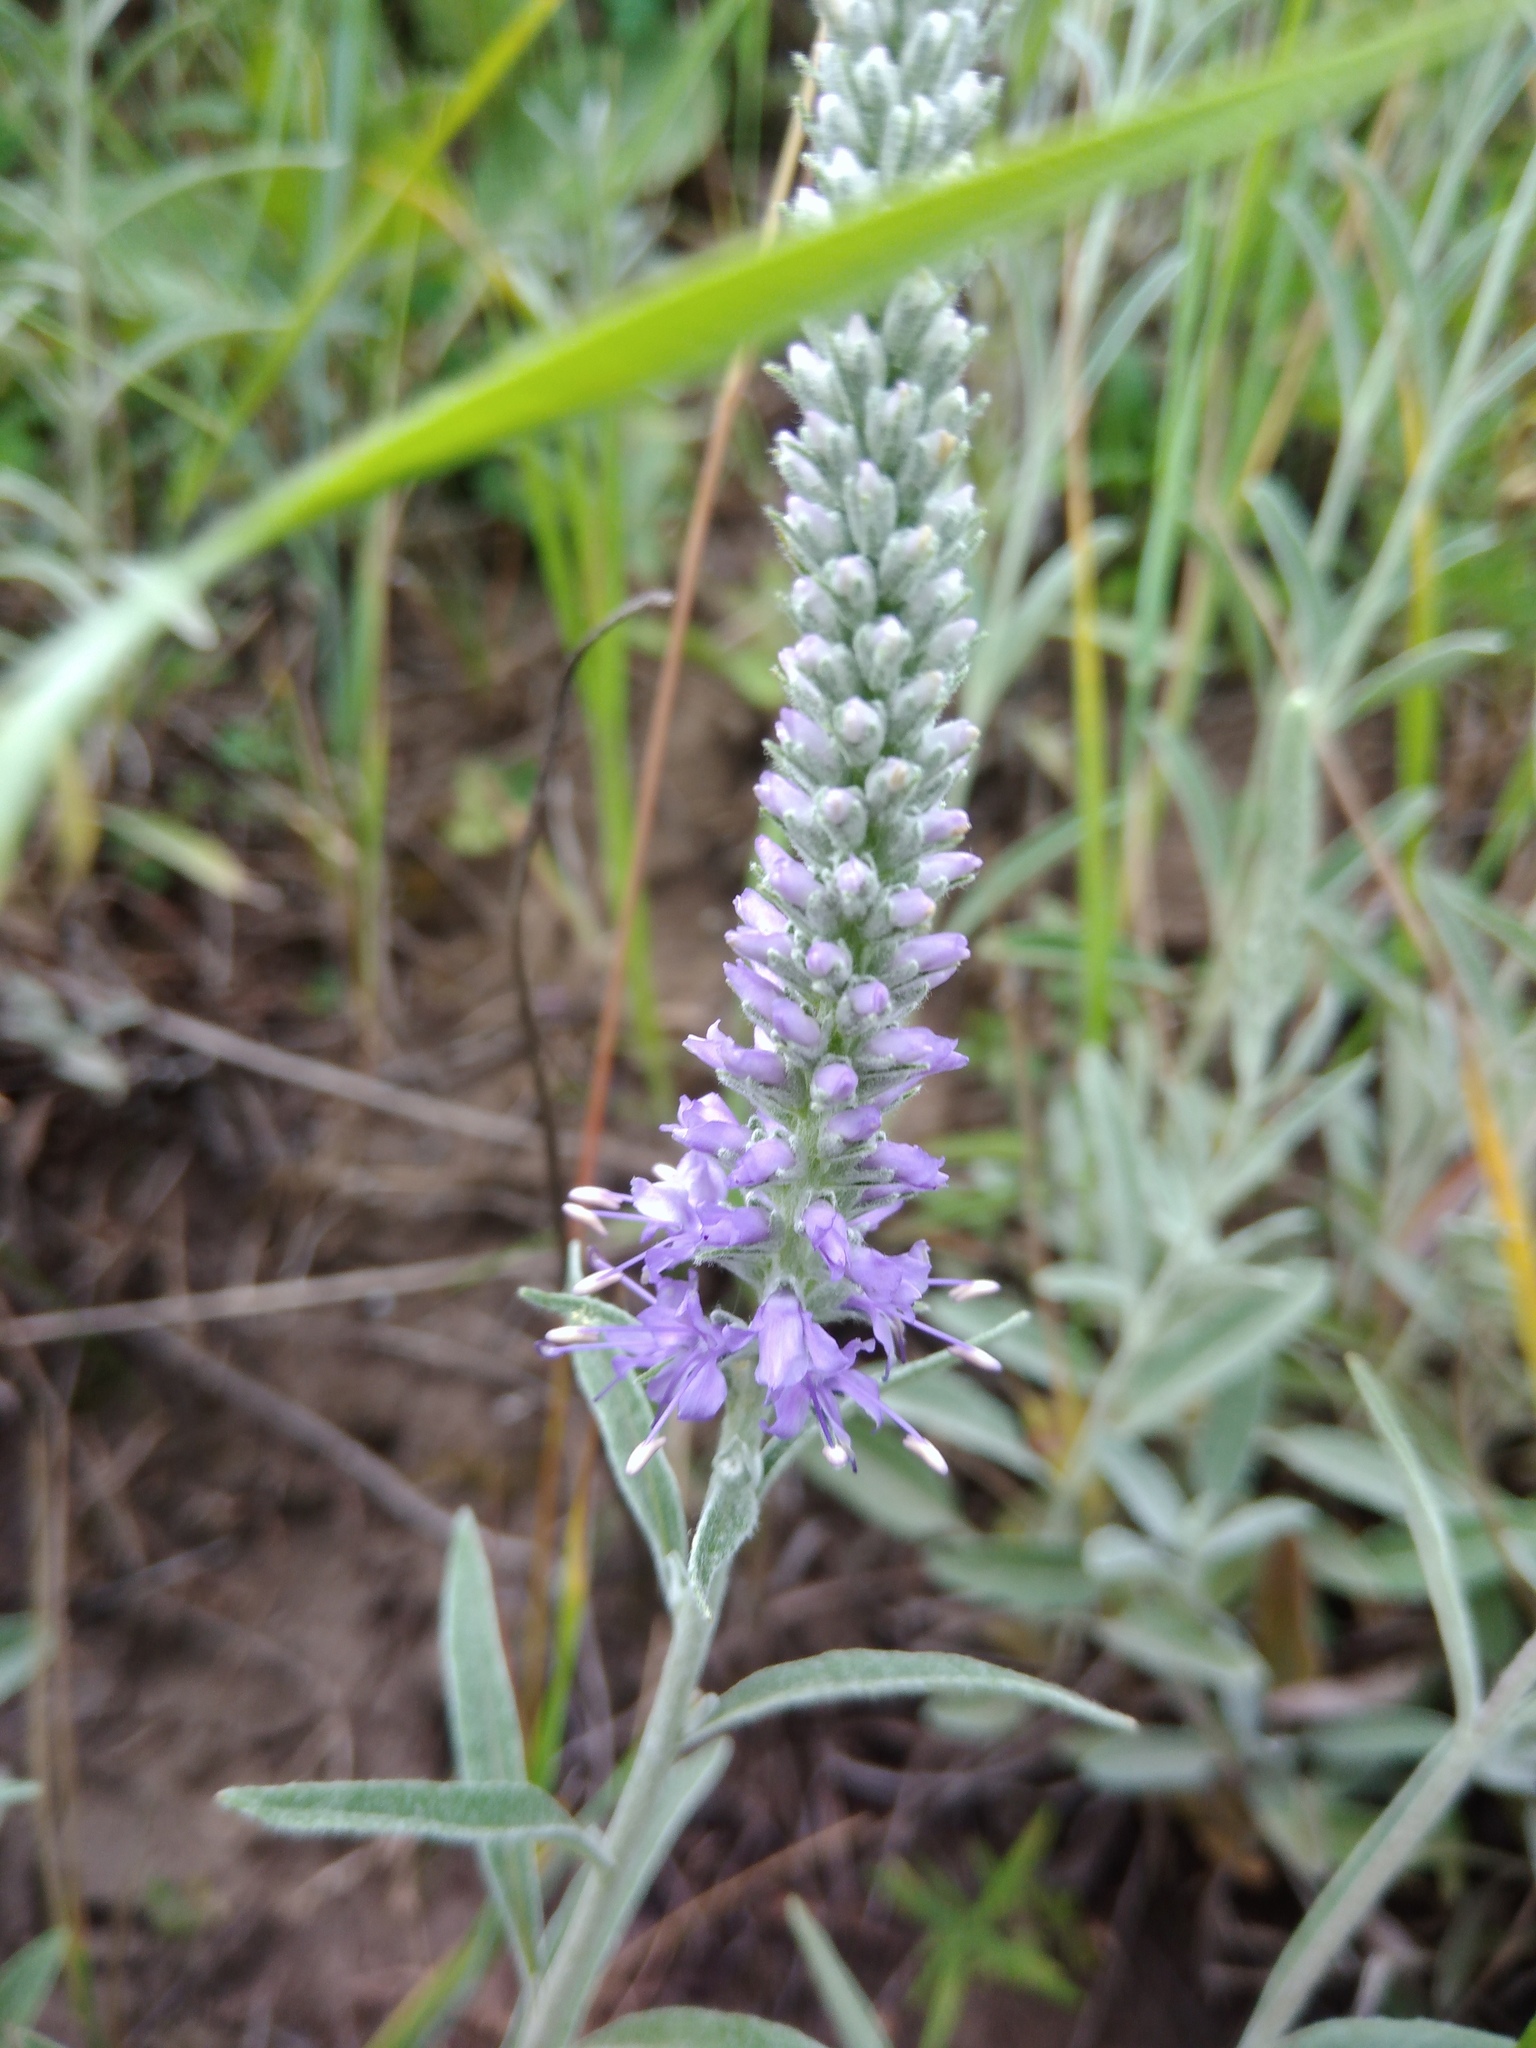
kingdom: Plantae
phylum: Tracheophyta
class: Magnoliopsida
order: Lamiales
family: Plantaginaceae
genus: Veronica
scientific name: Veronica incana
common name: Silver speedwell
